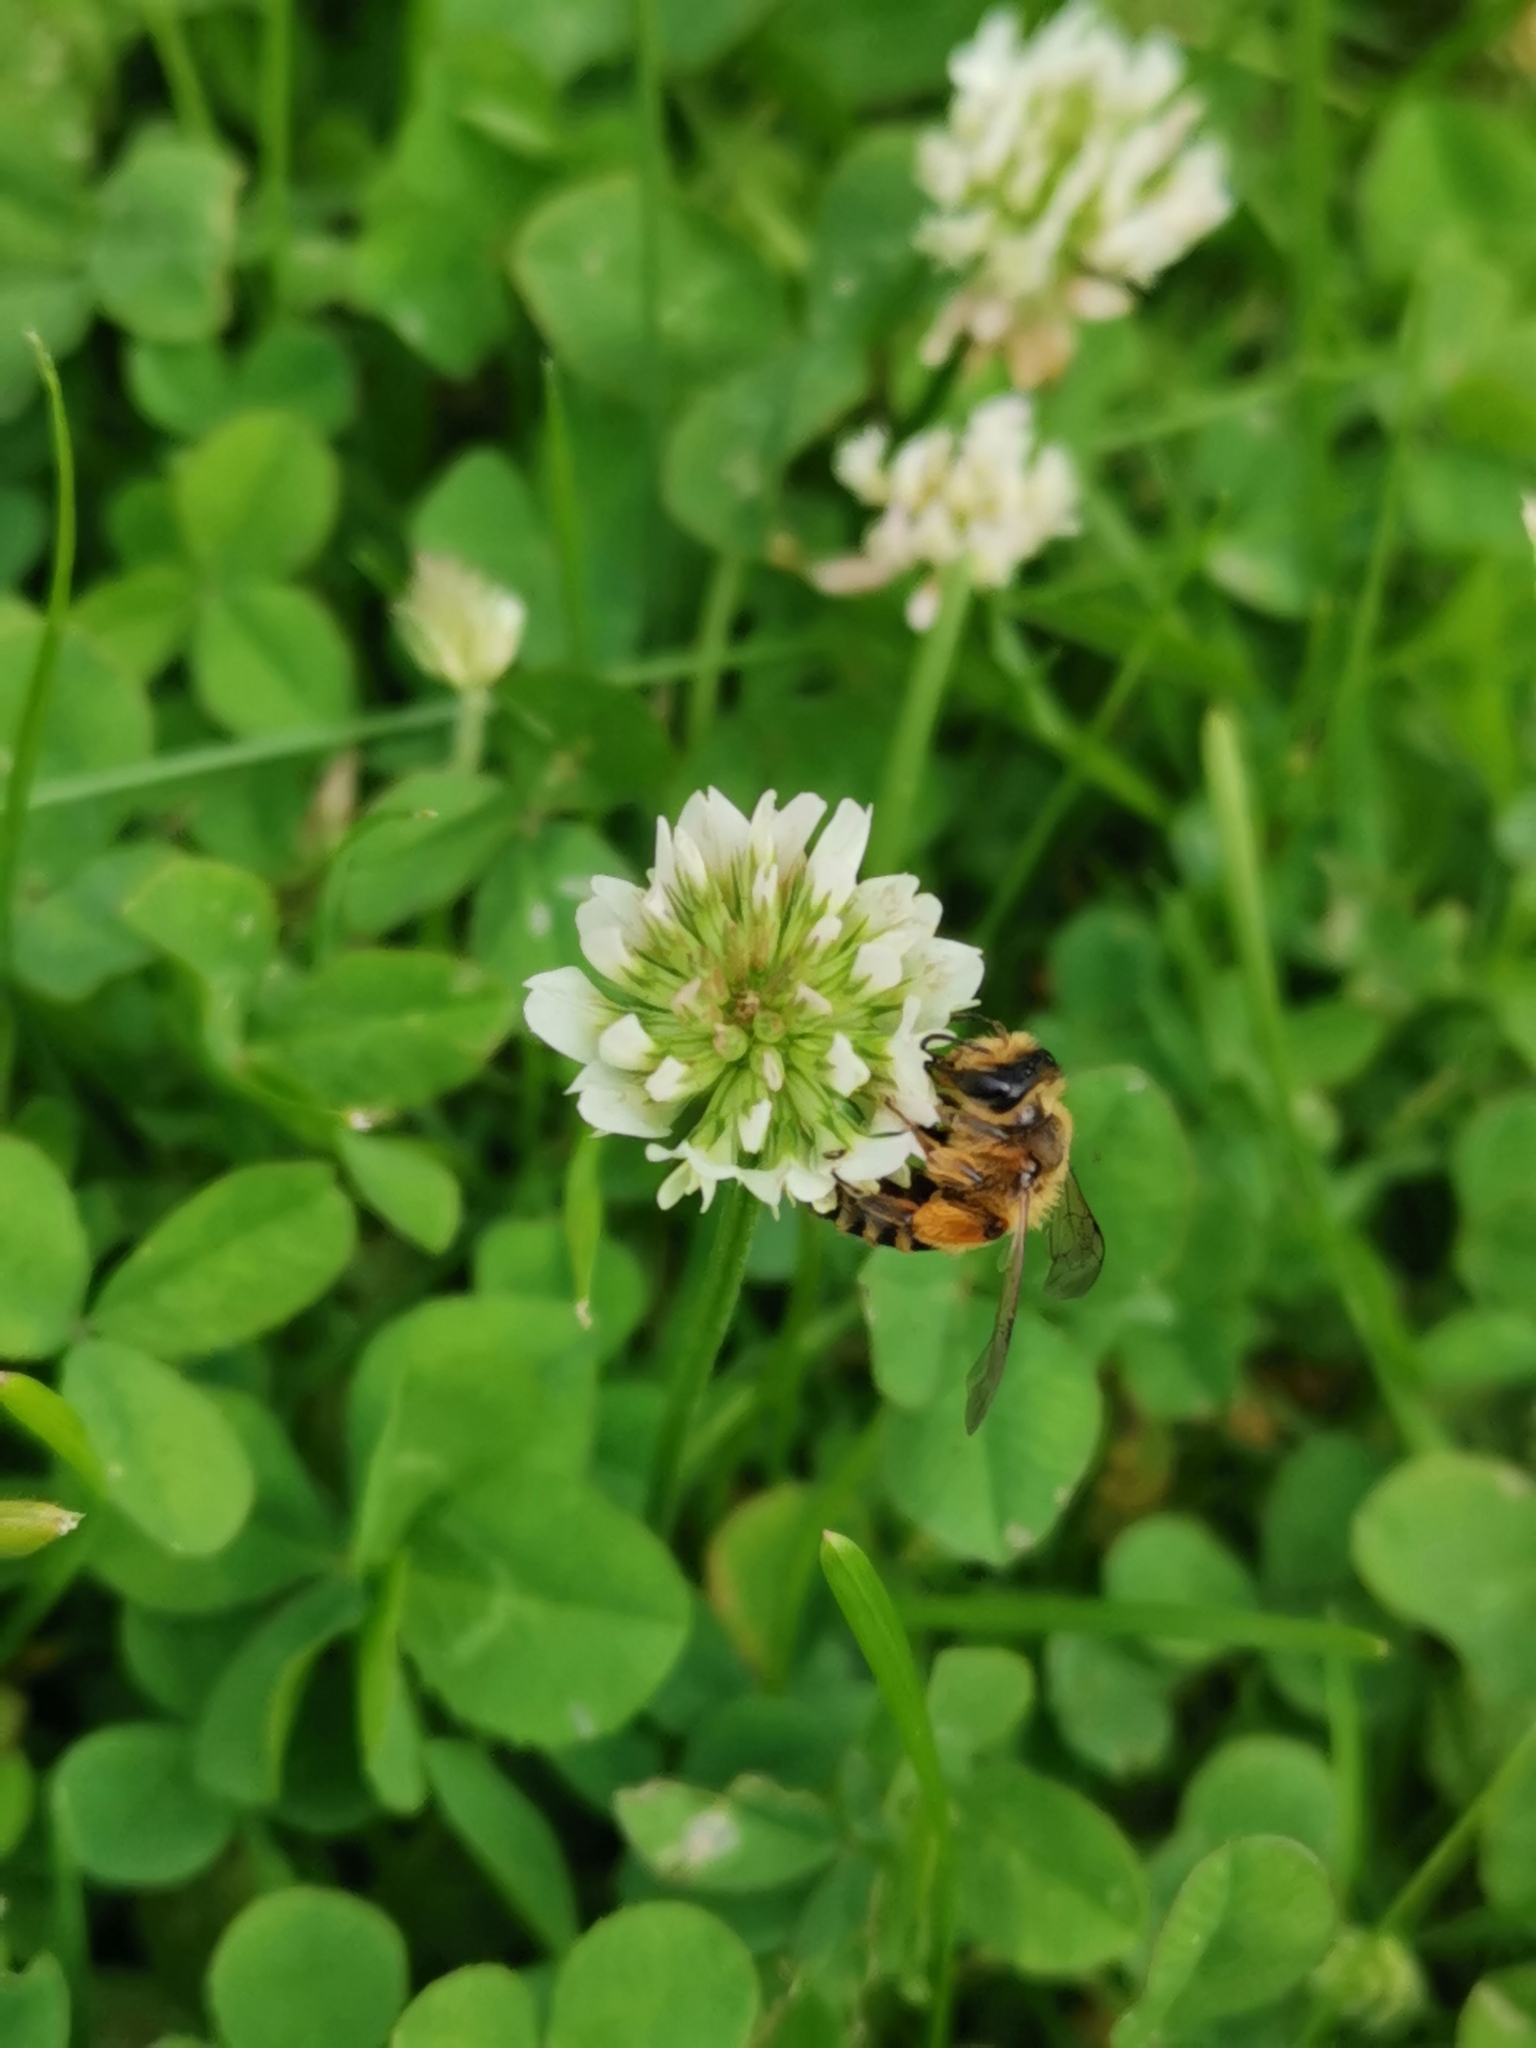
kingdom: Animalia
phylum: Arthropoda
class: Insecta
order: Hymenoptera
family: Apidae
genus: Apis
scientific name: Apis mellifera
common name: Honey bee
